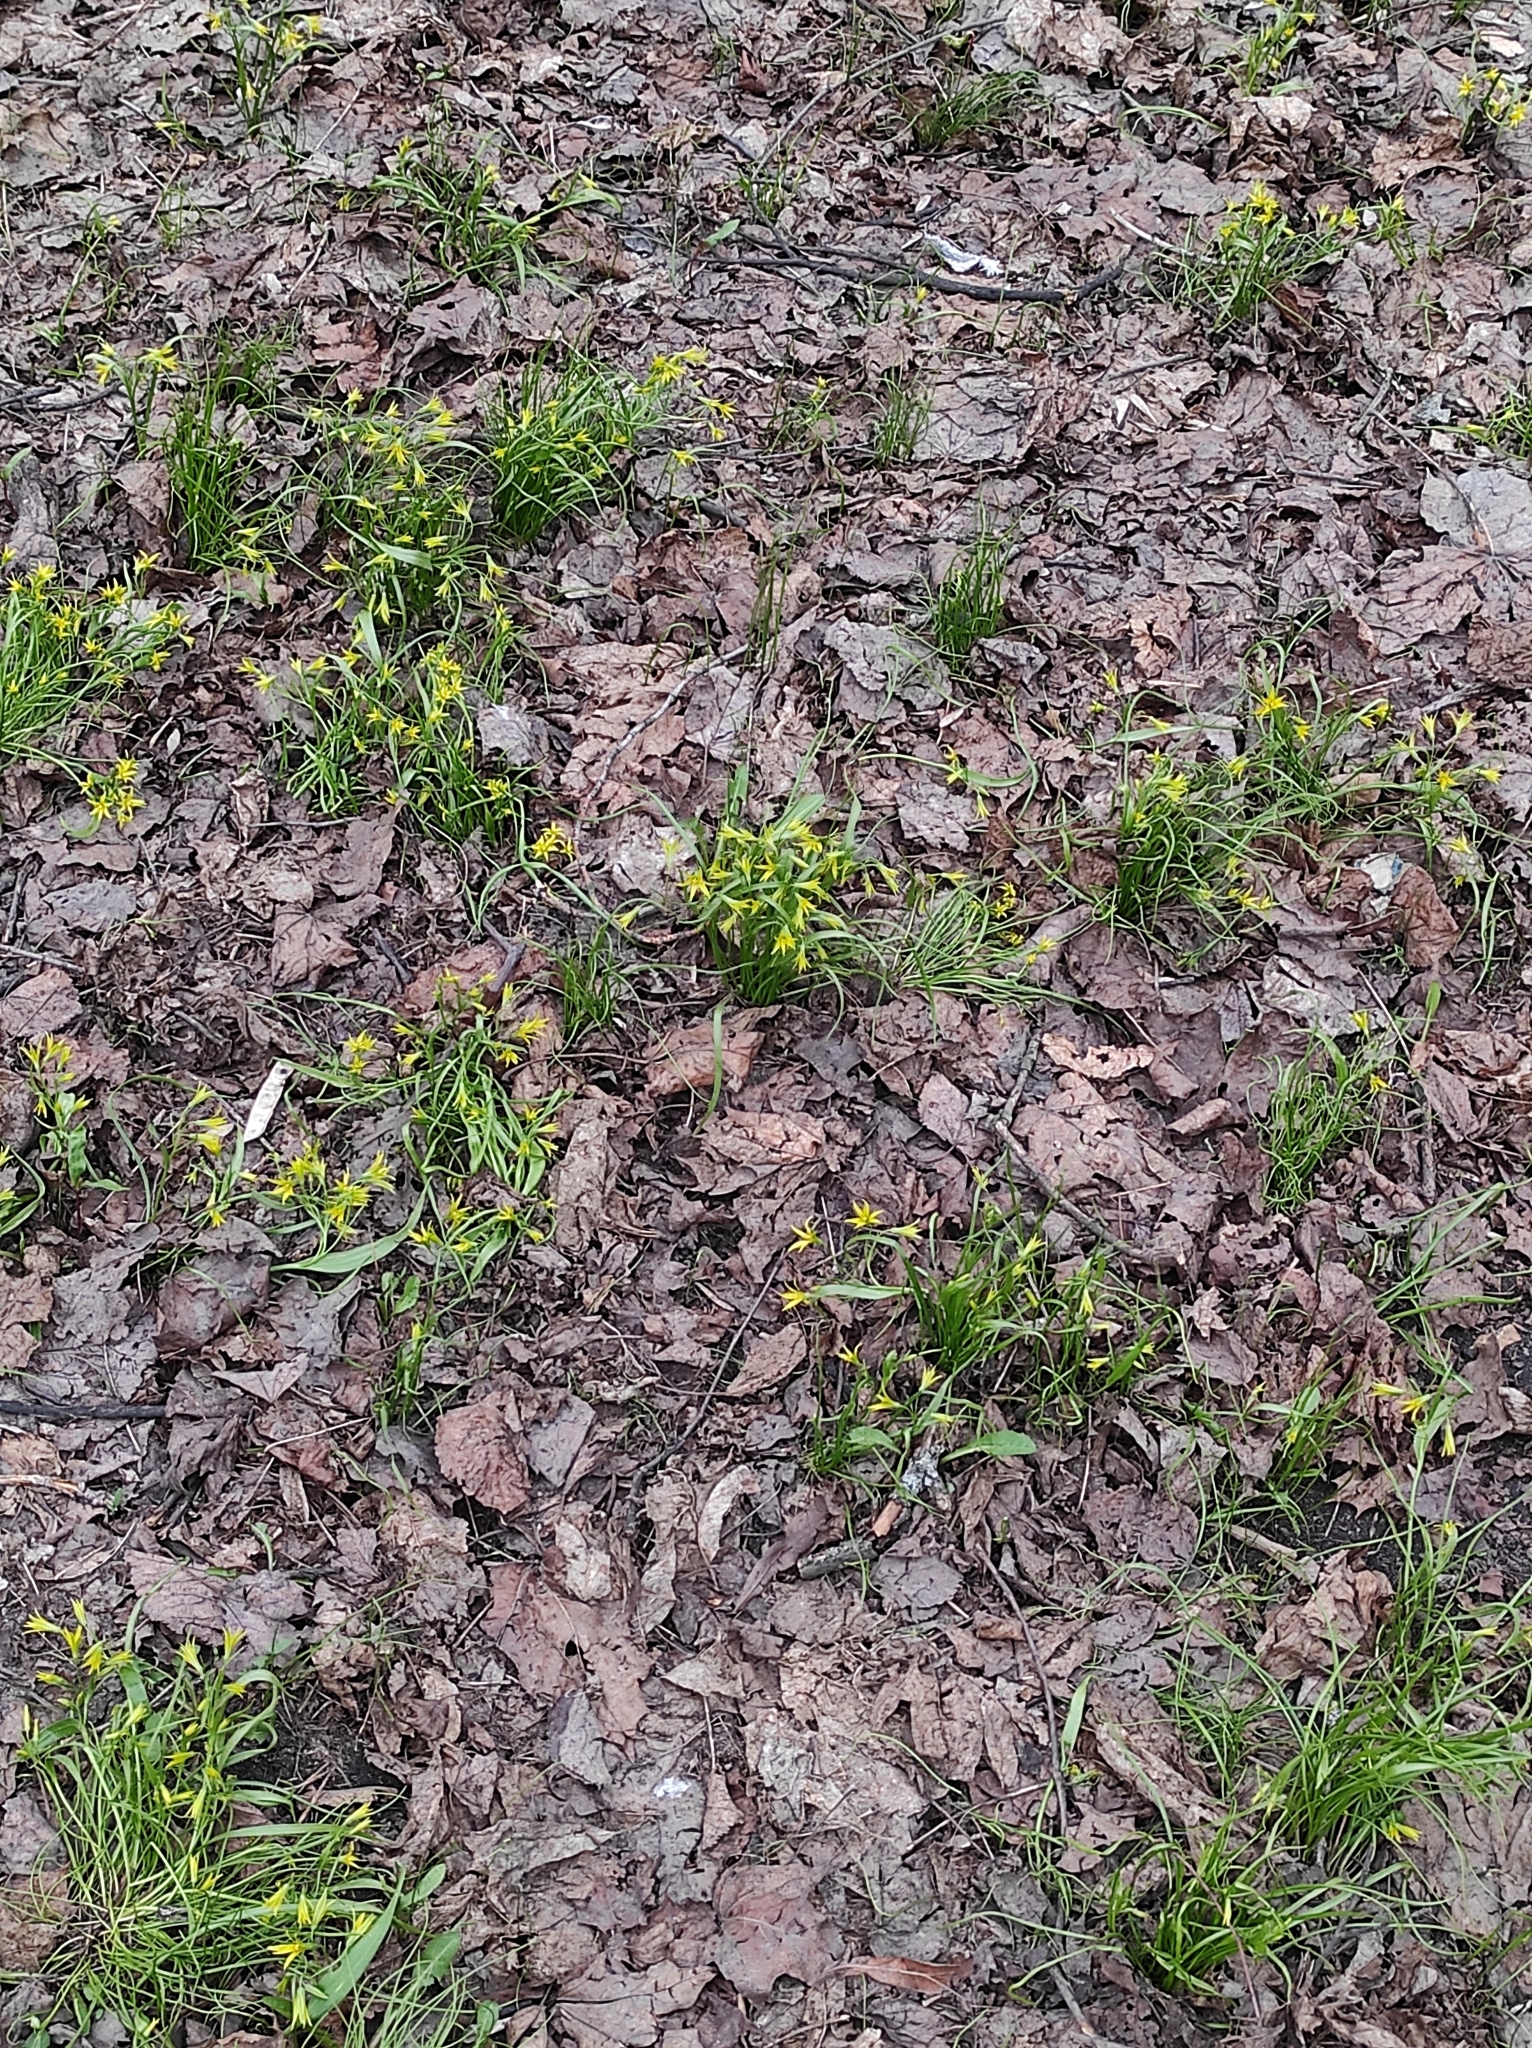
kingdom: Plantae
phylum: Tracheophyta
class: Liliopsida
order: Liliales
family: Liliaceae
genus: Gagea
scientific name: Gagea minima
